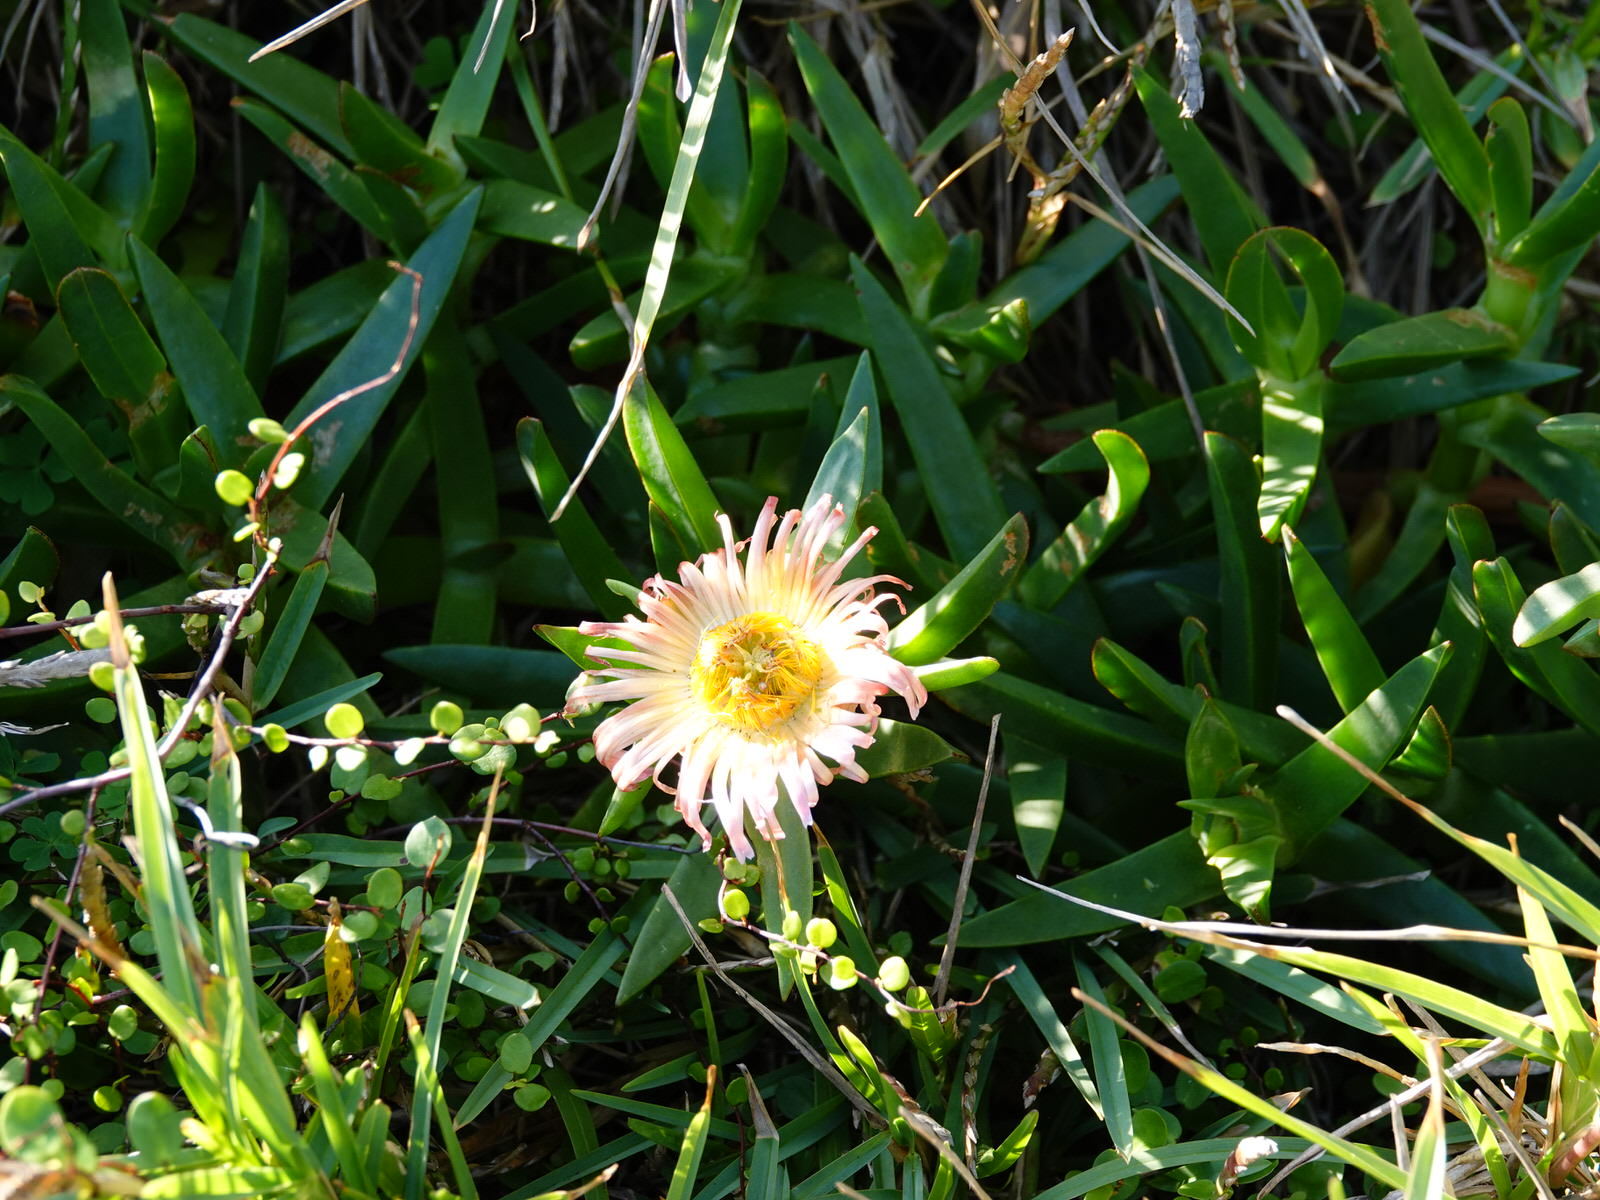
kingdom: Plantae
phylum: Tracheophyta
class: Magnoliopsida
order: Caryophyllales
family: Aizoaceae
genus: Carpobrotus
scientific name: Carpobrotus edulis
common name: Hottentot-fig
